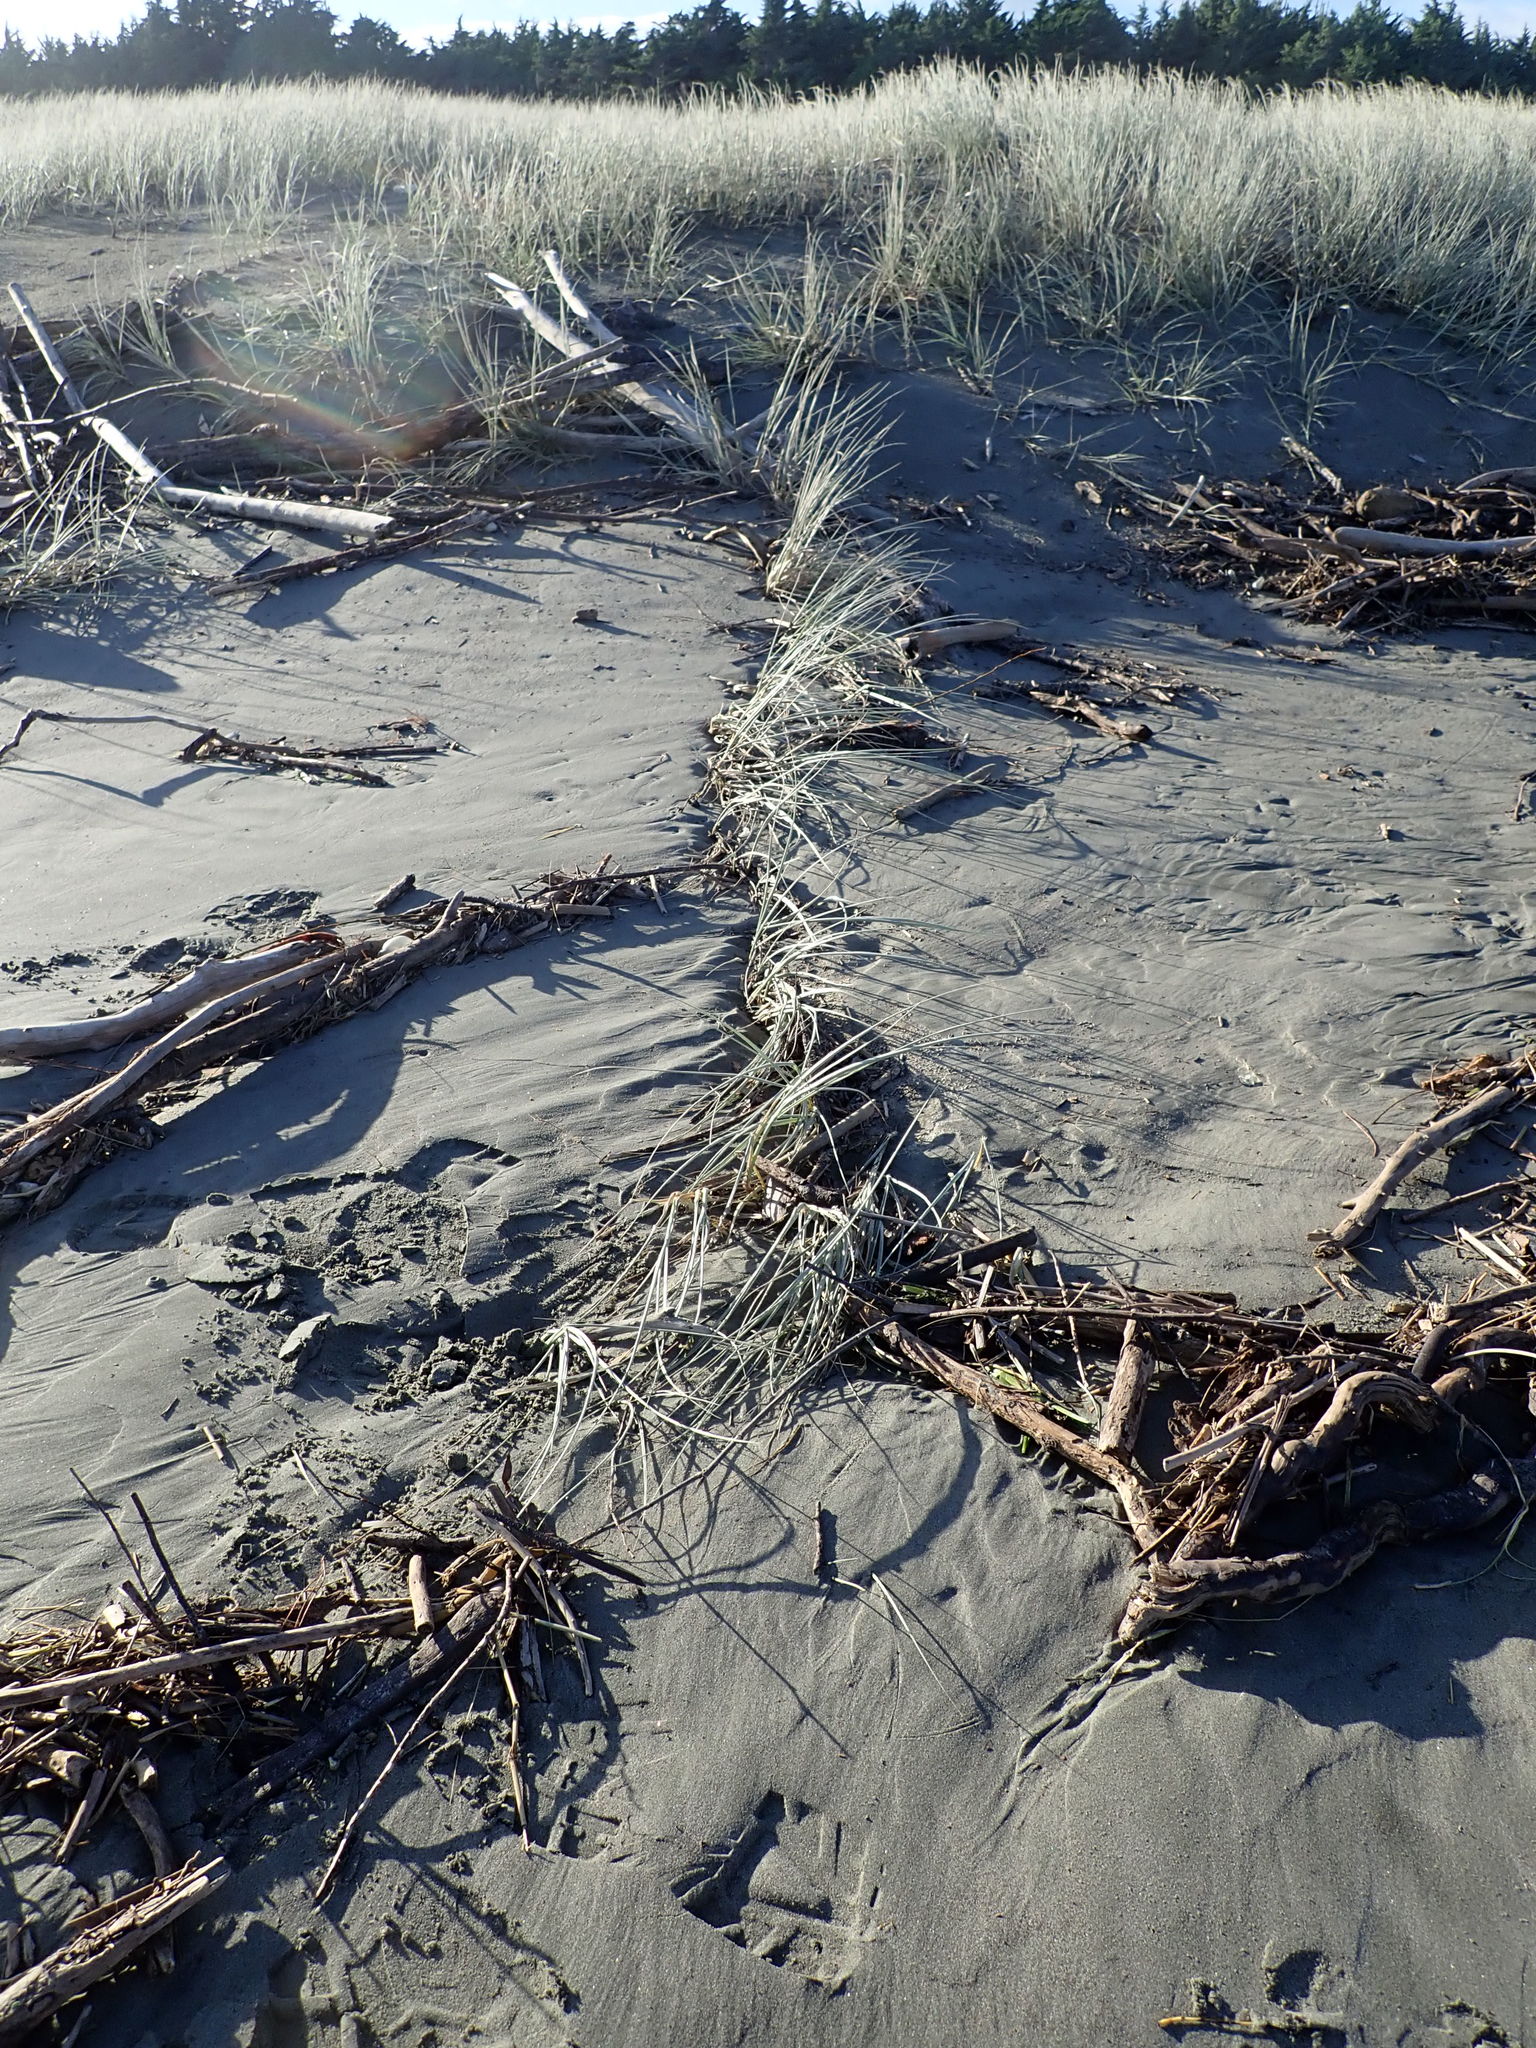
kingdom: Plantae
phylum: Tracheophyta
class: Liliopsida
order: Poales
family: Poaceae
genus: Spinifex
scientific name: Spinifex sericeus
